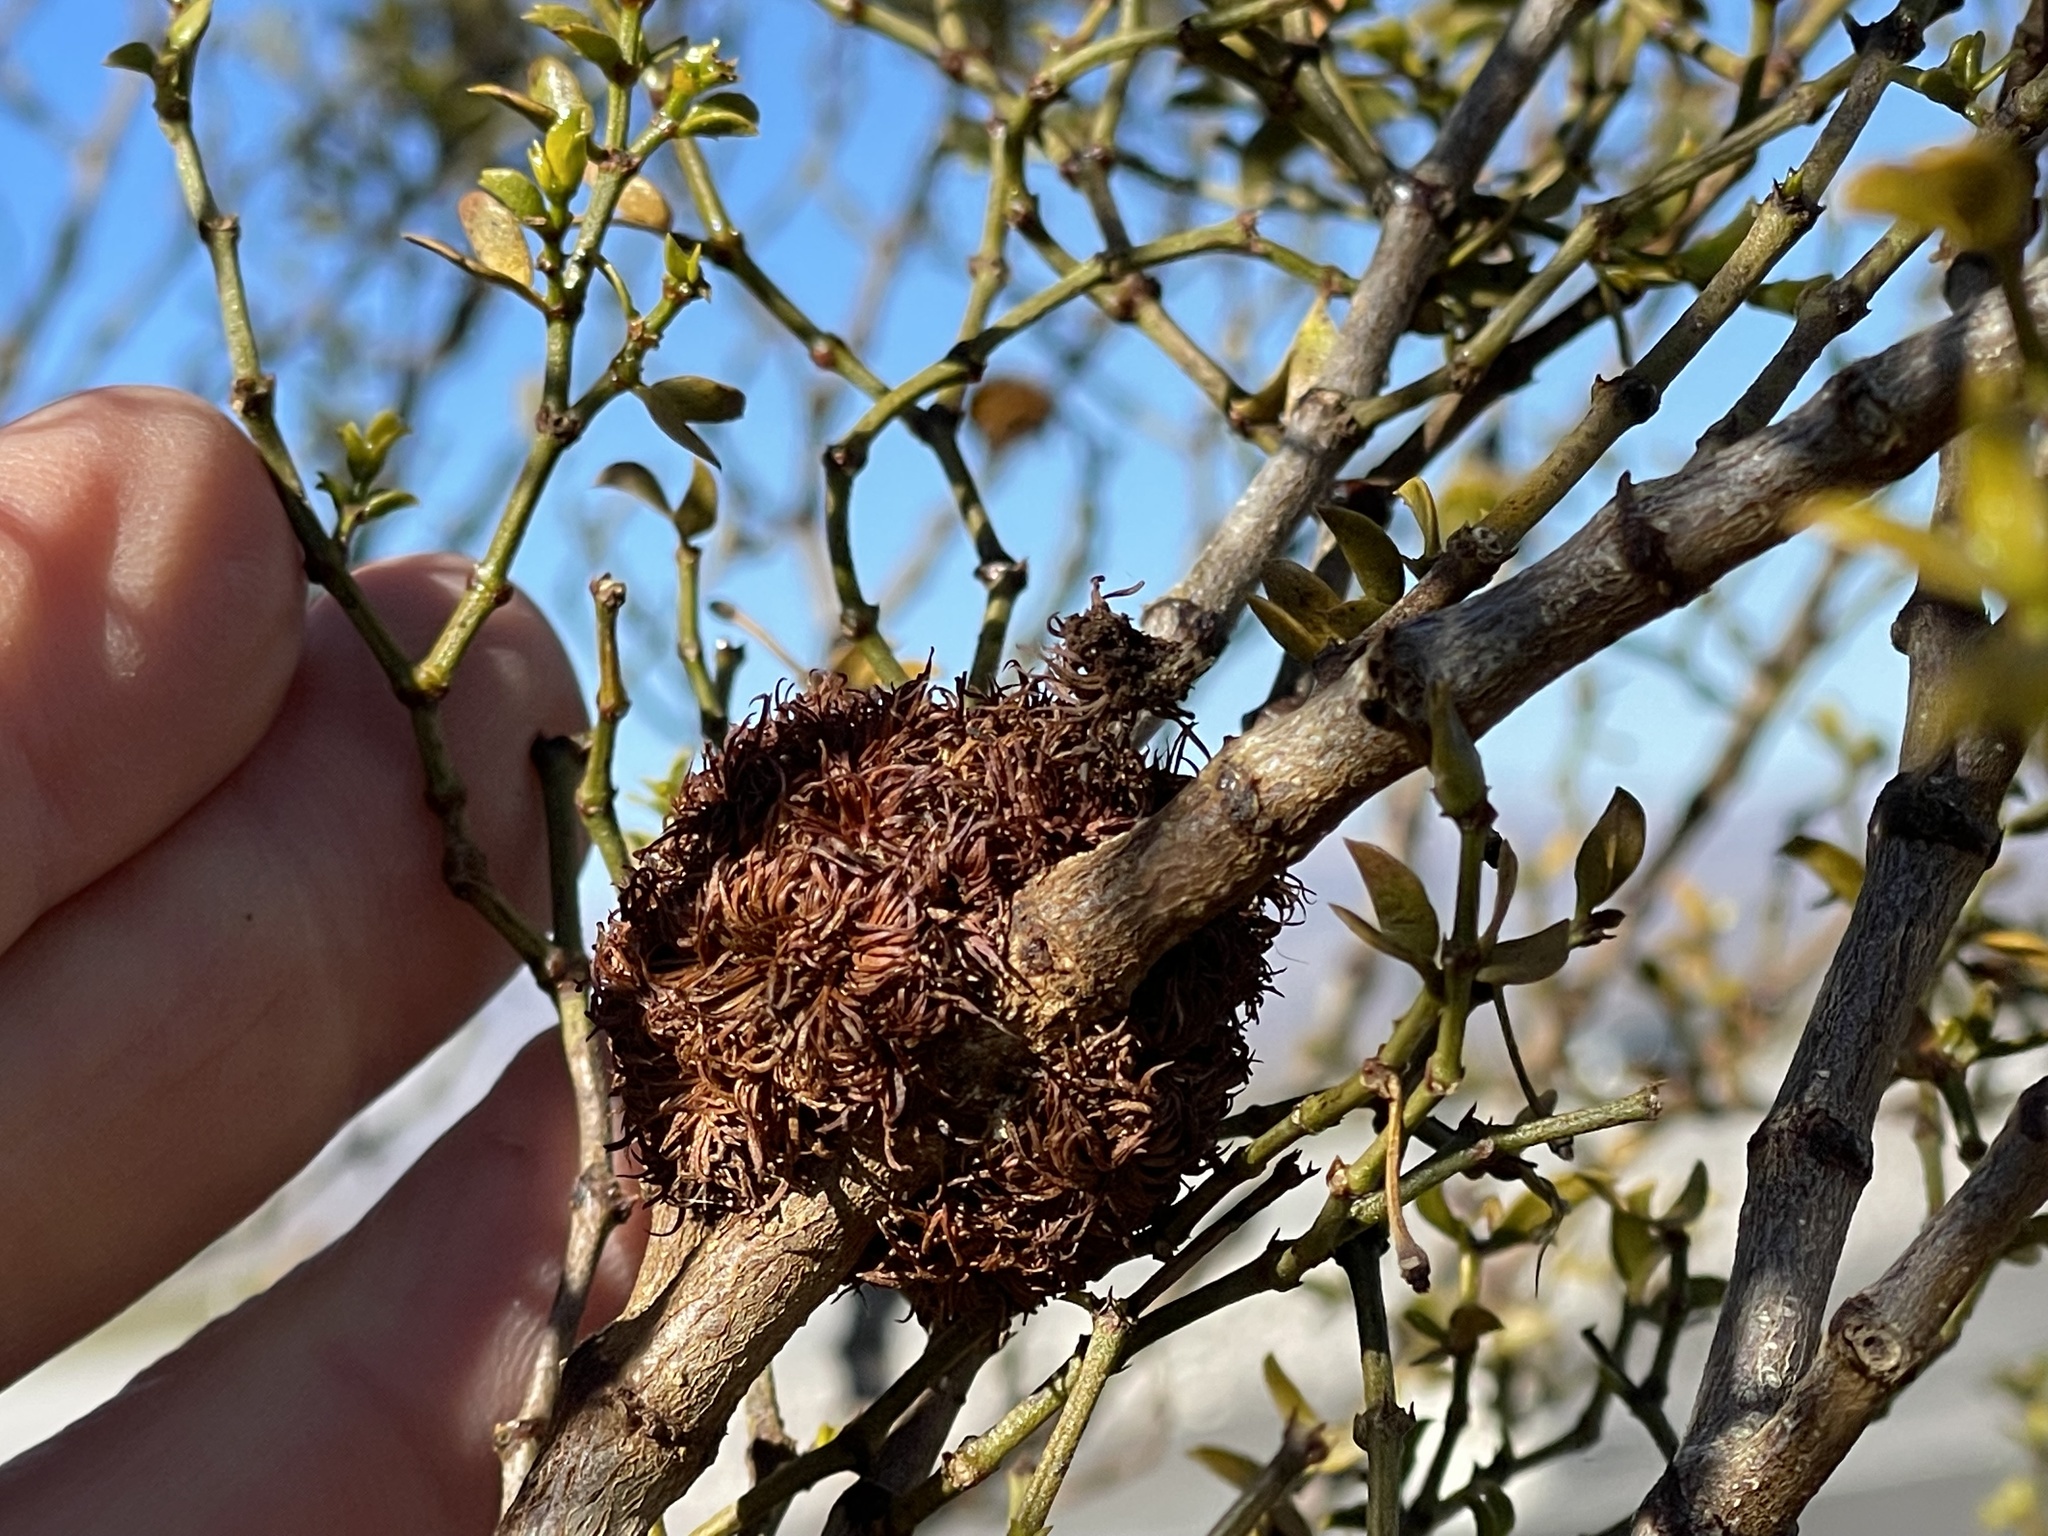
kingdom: Animalia
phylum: Arthropoda
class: Insecta
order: Diptera
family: Cecidomyiidae
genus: Asphondylia
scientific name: Asphondylia auripila
